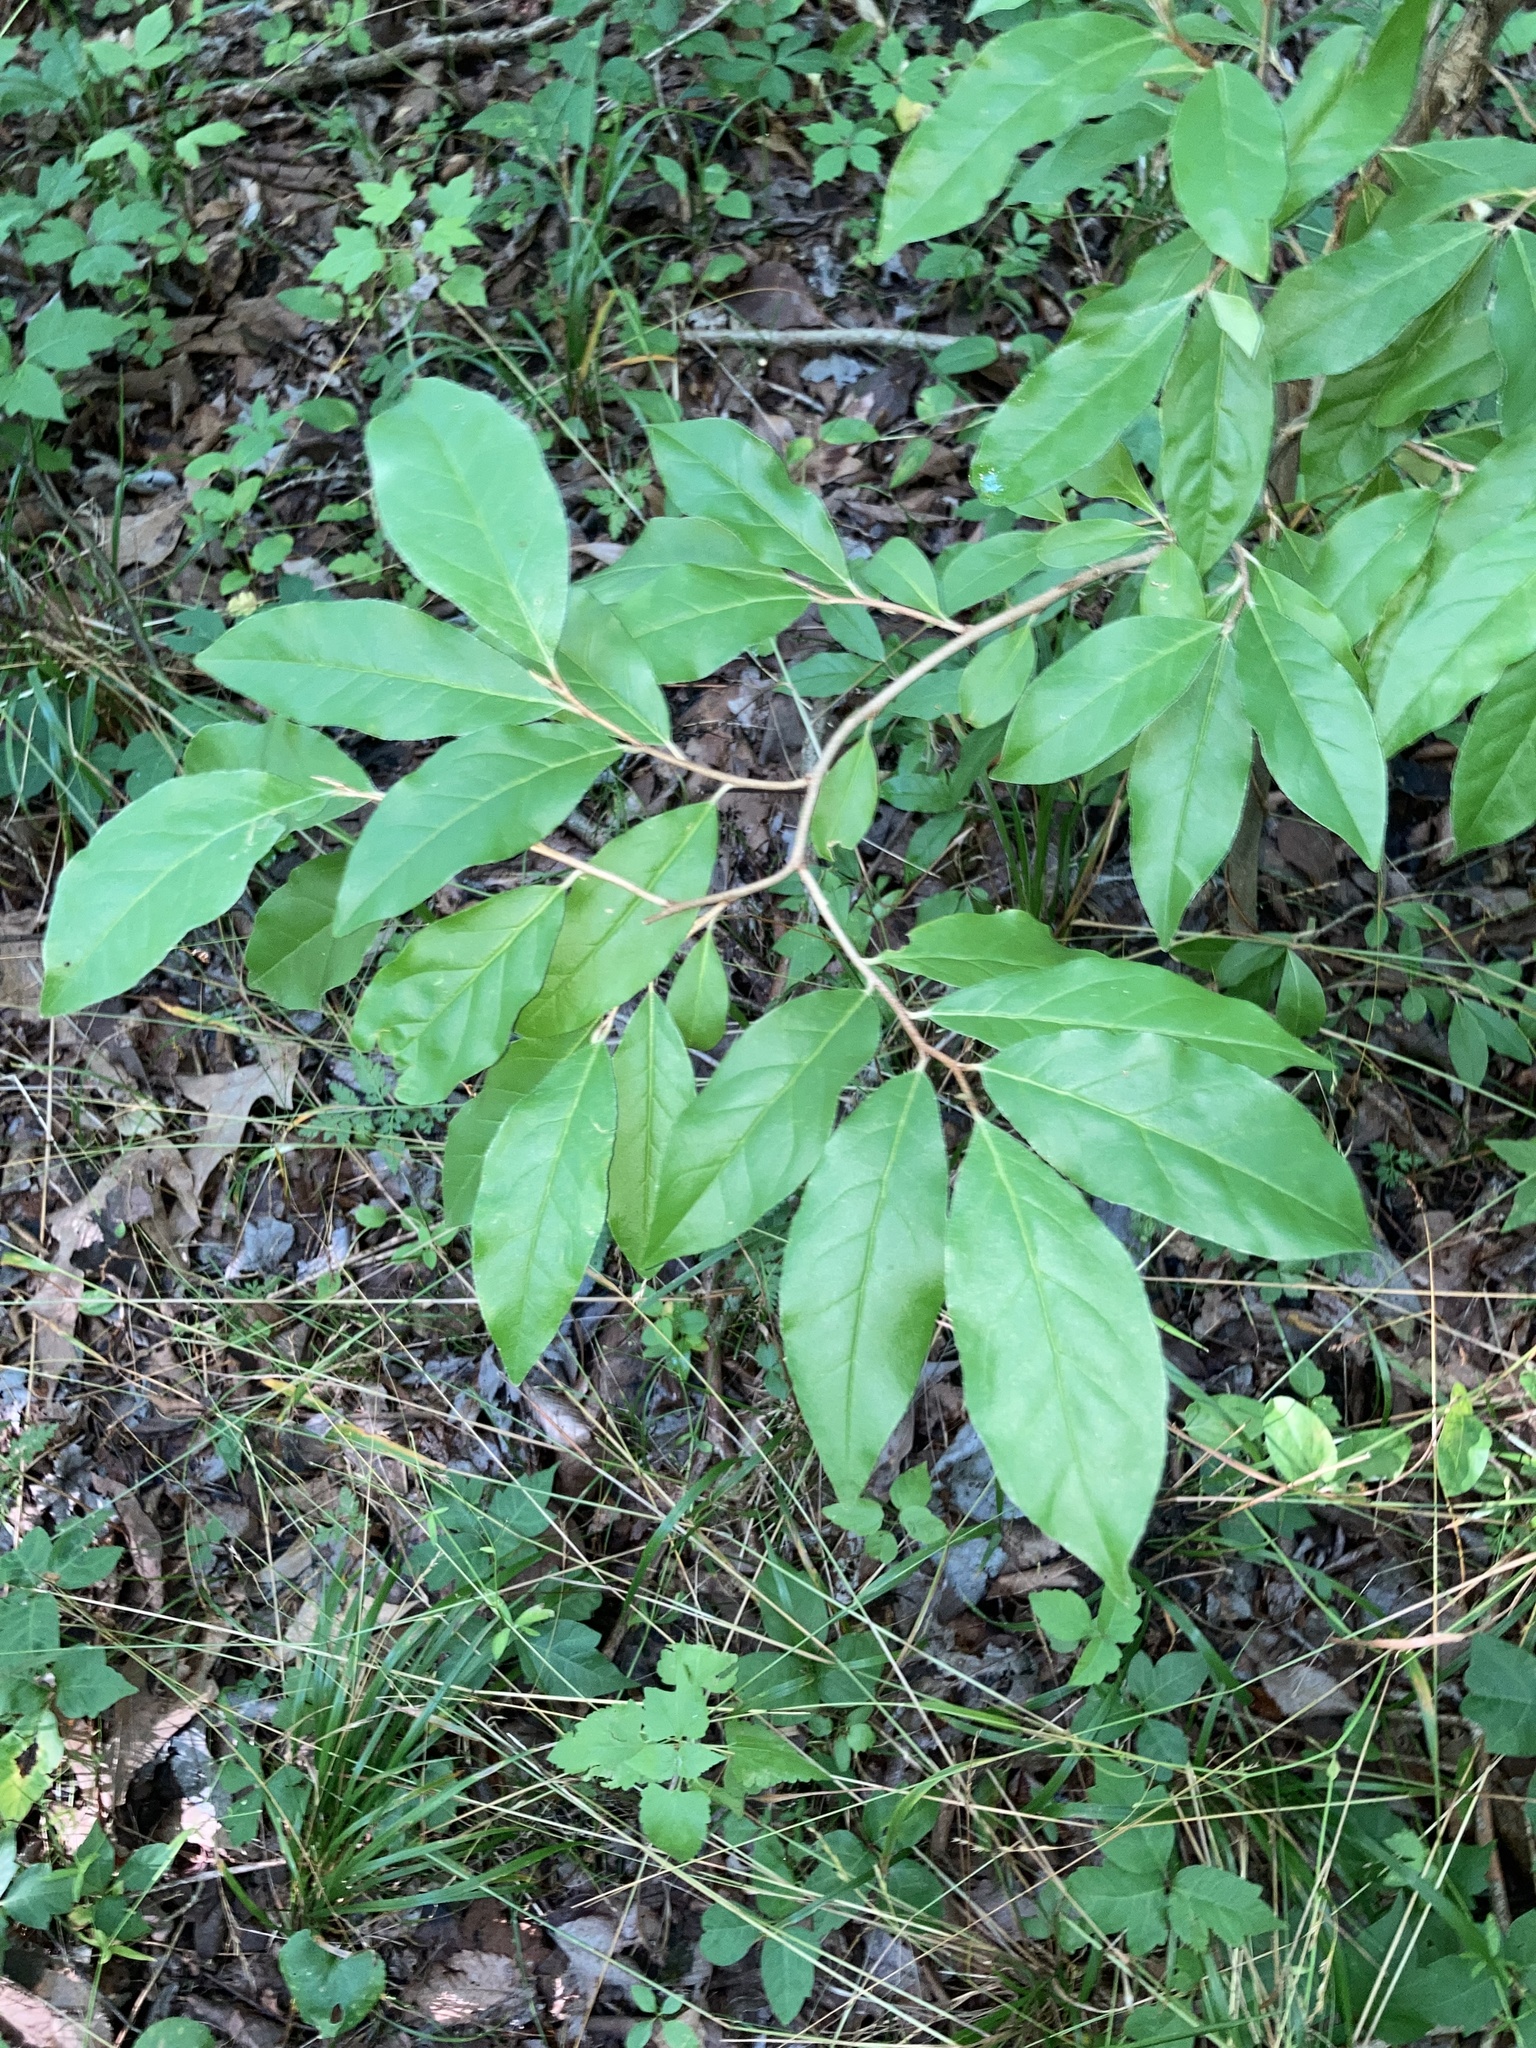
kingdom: Plantae
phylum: Tracheophyta
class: Magnoliopsida
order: Rosales
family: Elaeagnaceae
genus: Elaeagnus
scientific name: Elaeagnus umbellata
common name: Autumn olive
